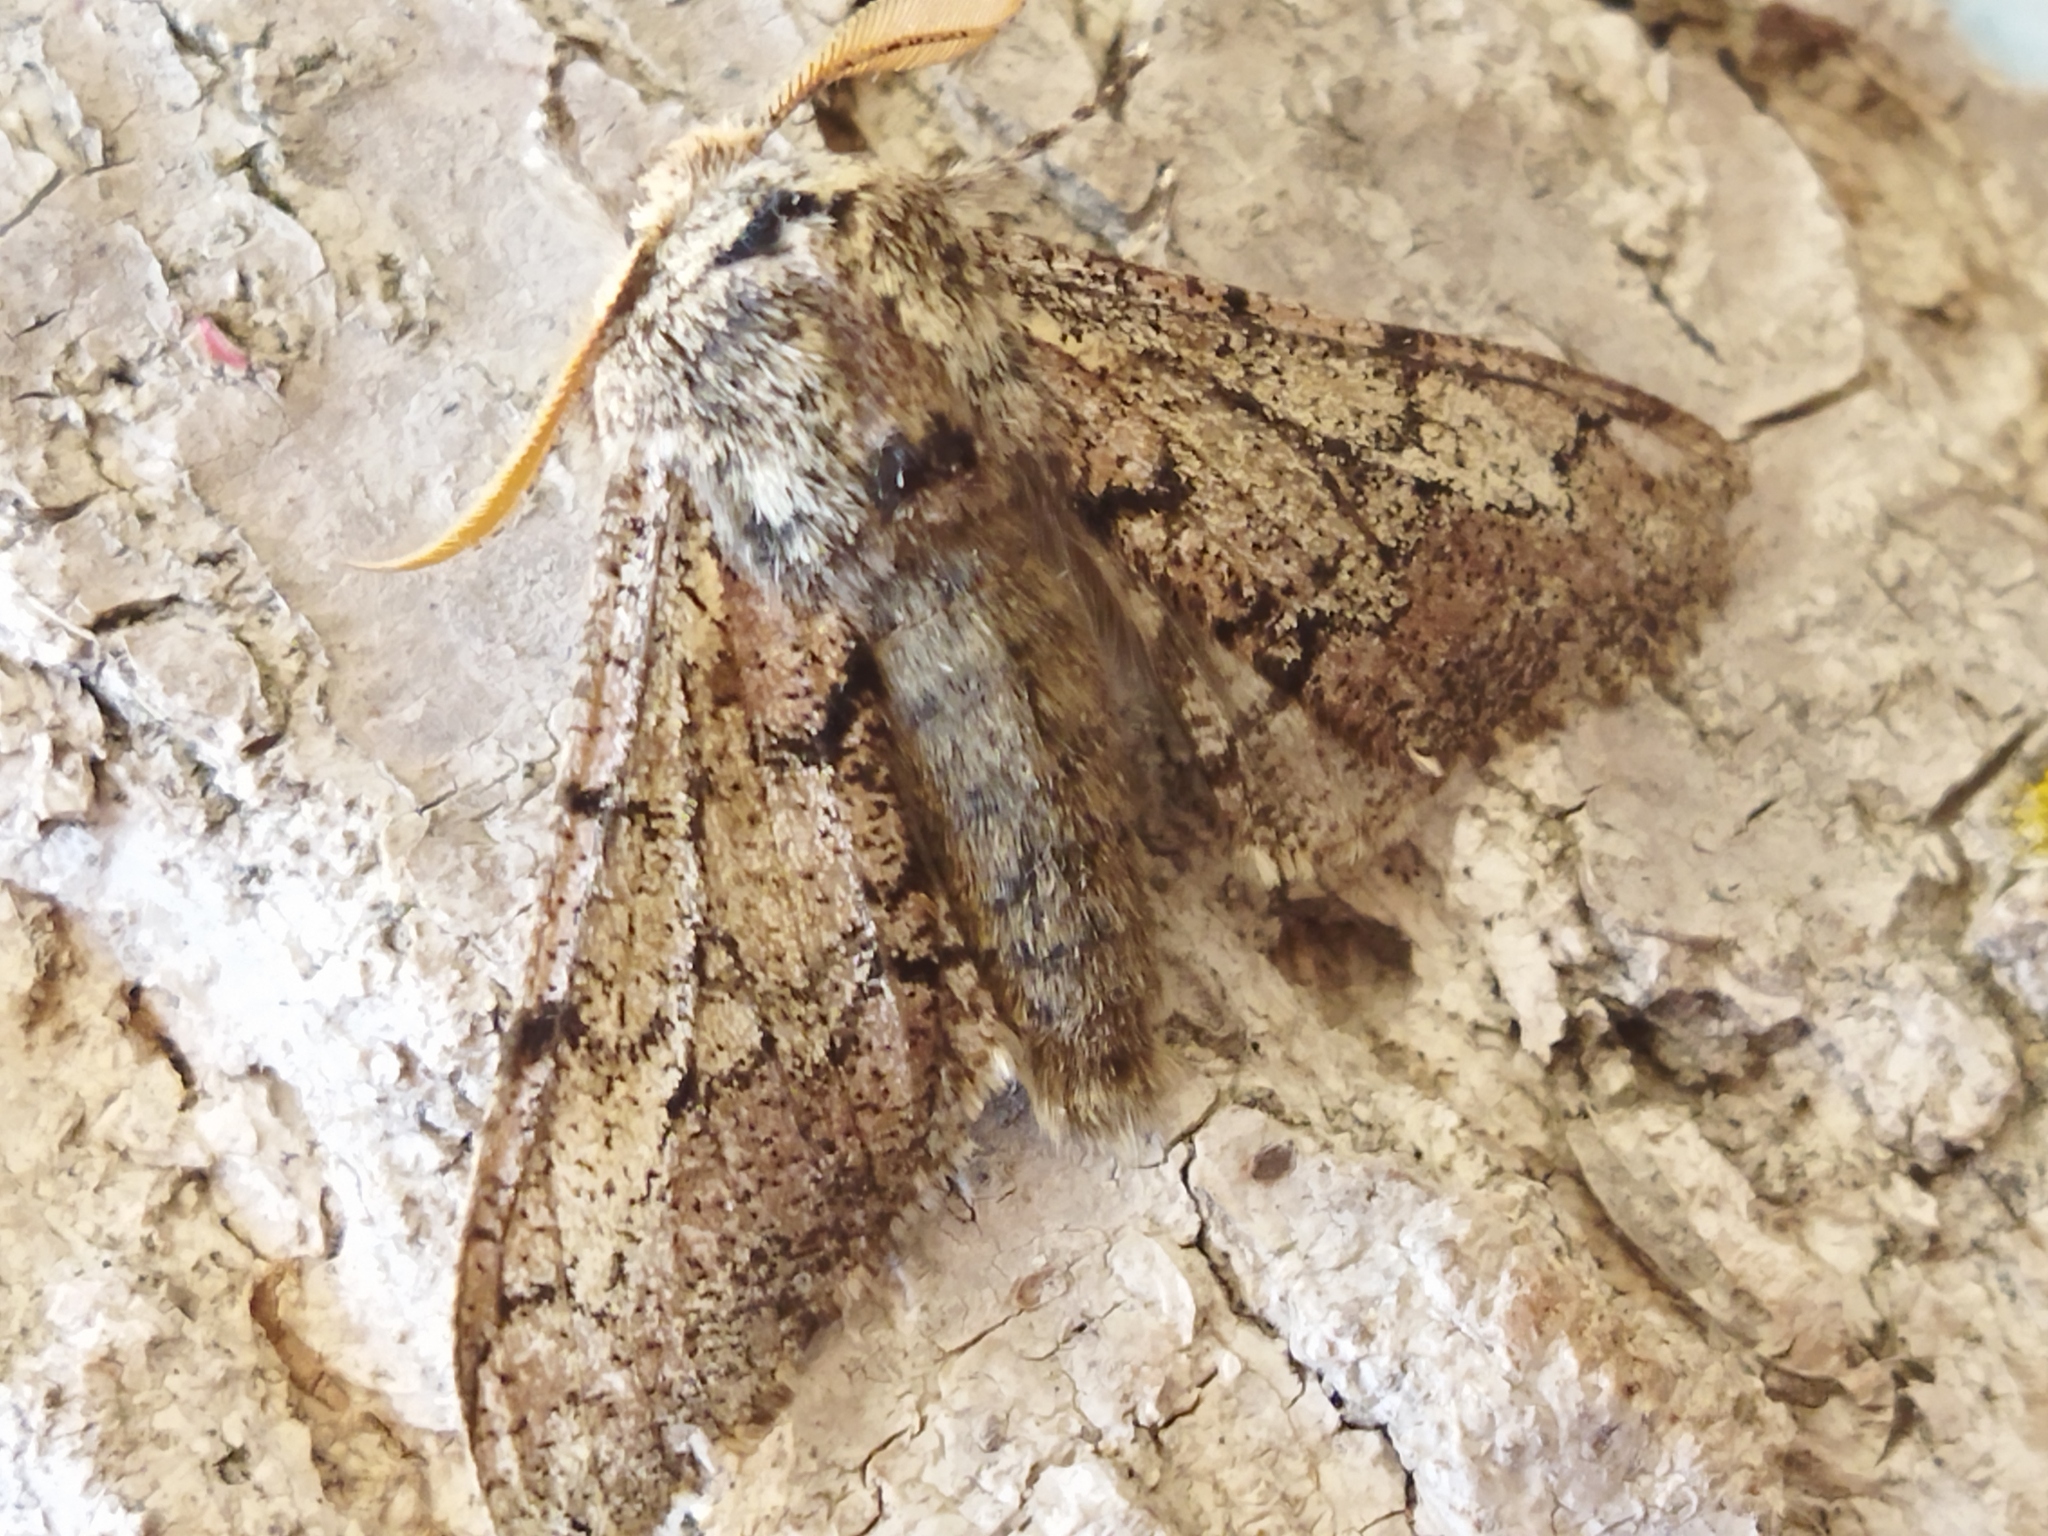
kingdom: Animalia
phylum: Arthropoda
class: Insecta
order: Lepidoptera
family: Geometridae
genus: Biston
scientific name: Biston strataria
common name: Oak beauty
